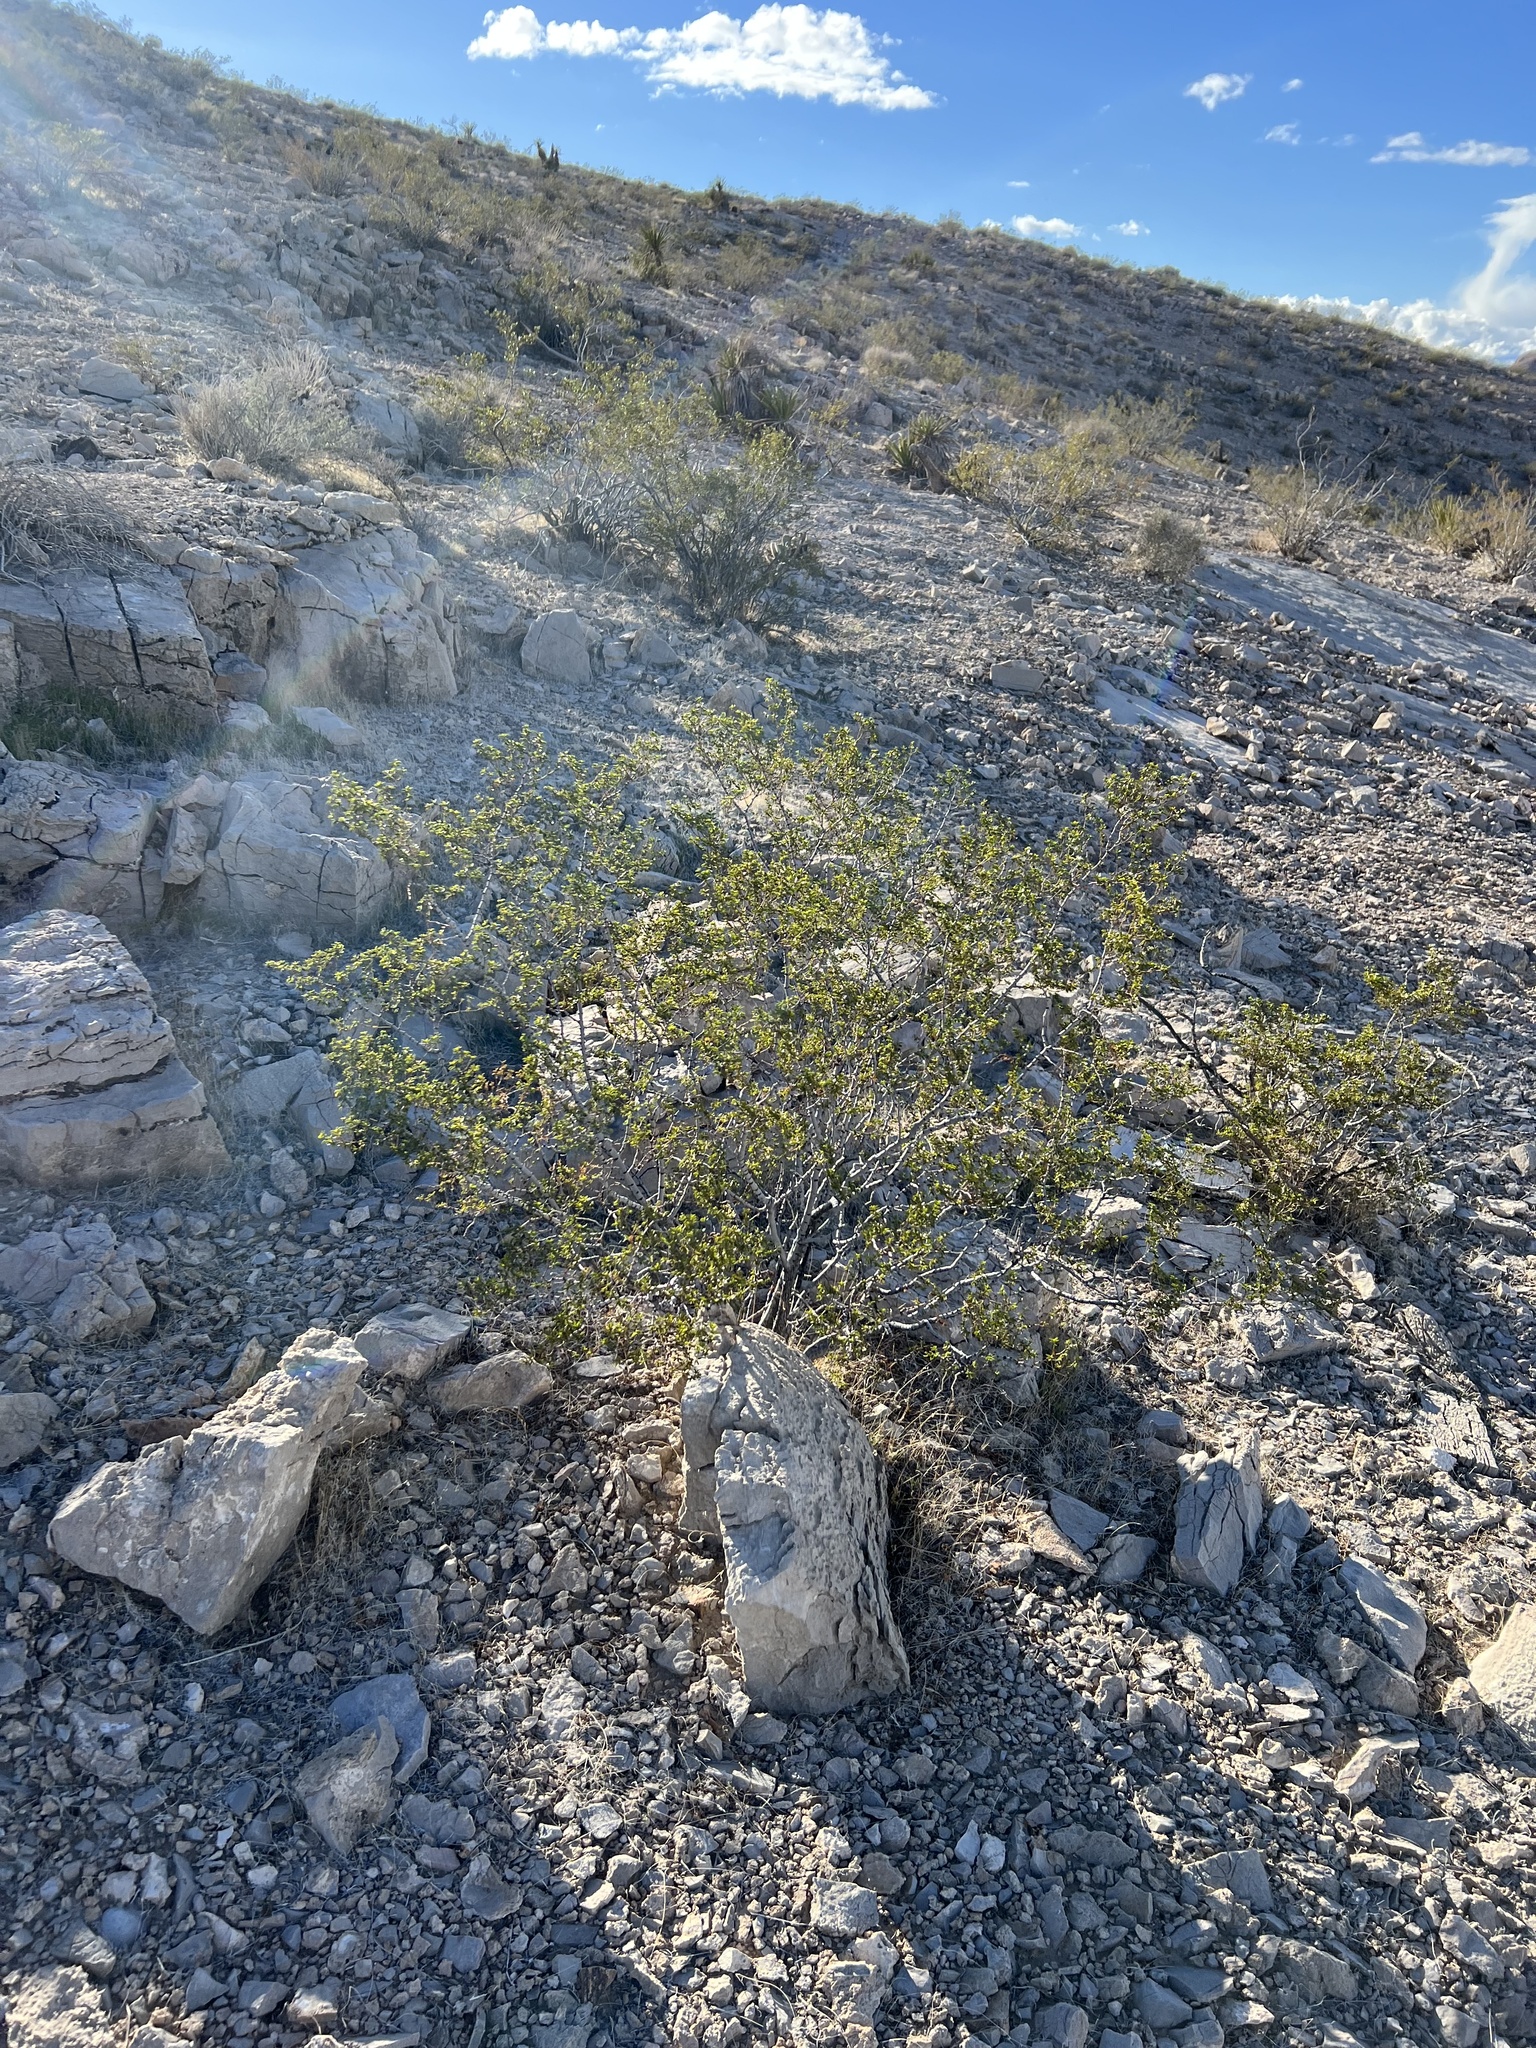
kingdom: Plantae
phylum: Tracheophyta
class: Magnoliopsida
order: Zygophyllales
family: Zygophyllaceae
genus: Larrea
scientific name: Larrea tridentata
